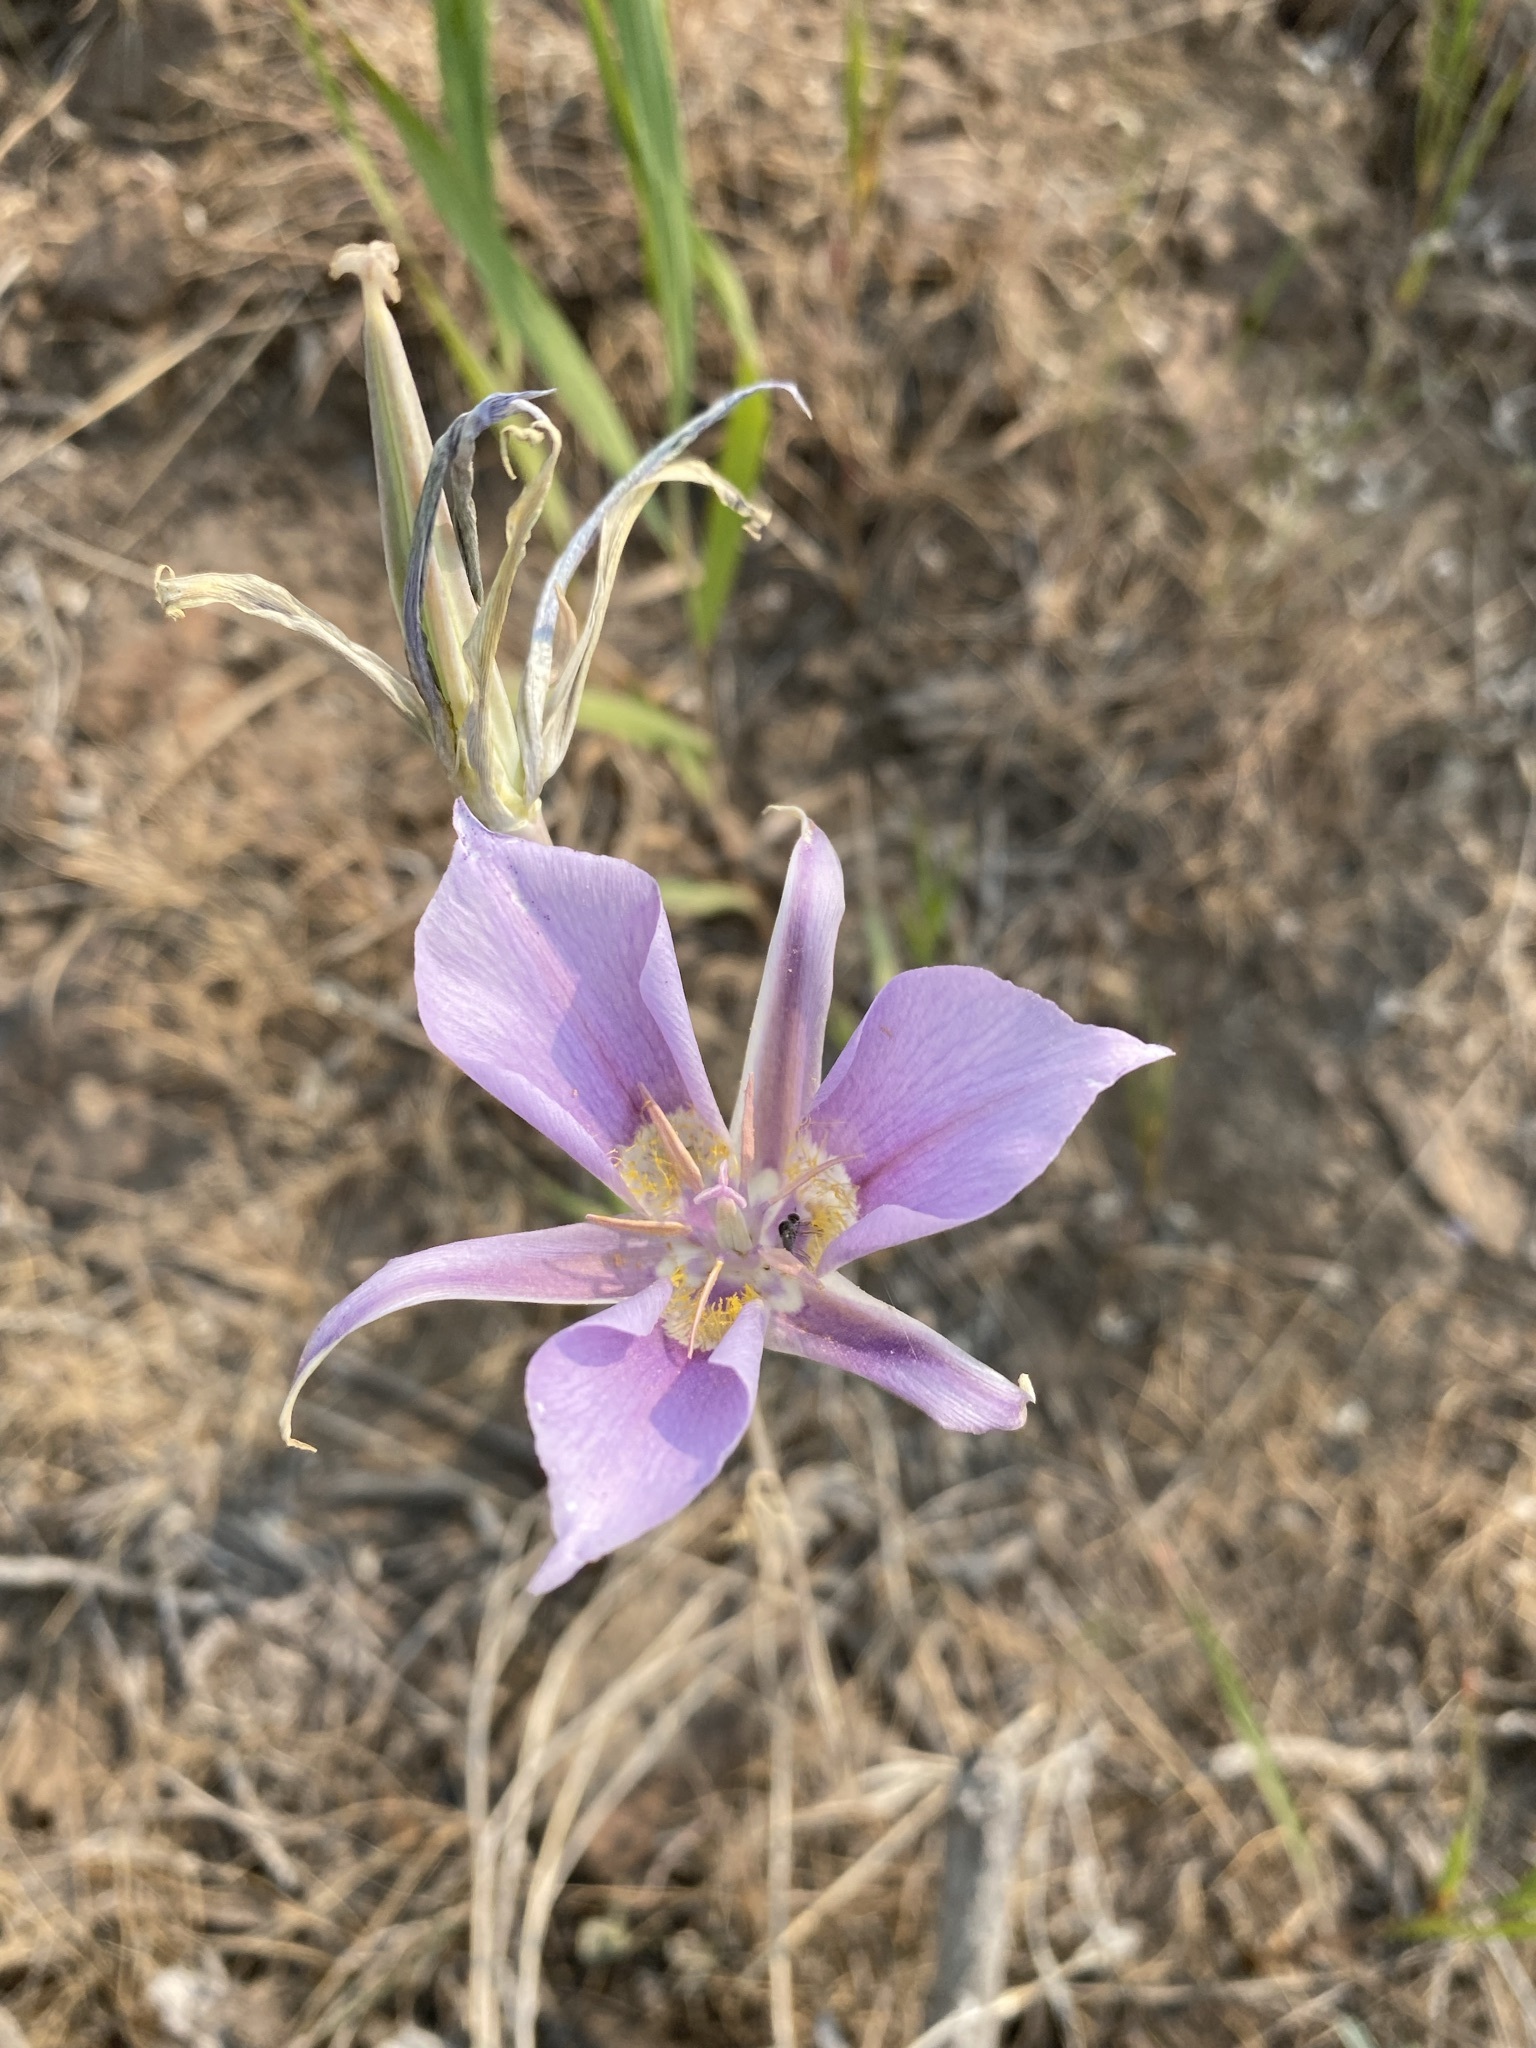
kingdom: Plantae
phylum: Tracheophyta
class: Liliopsida
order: Liliales
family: Liliaceae
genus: Calochortus
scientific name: Calochortus macrocarpus
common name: Green-band mariposa lily
